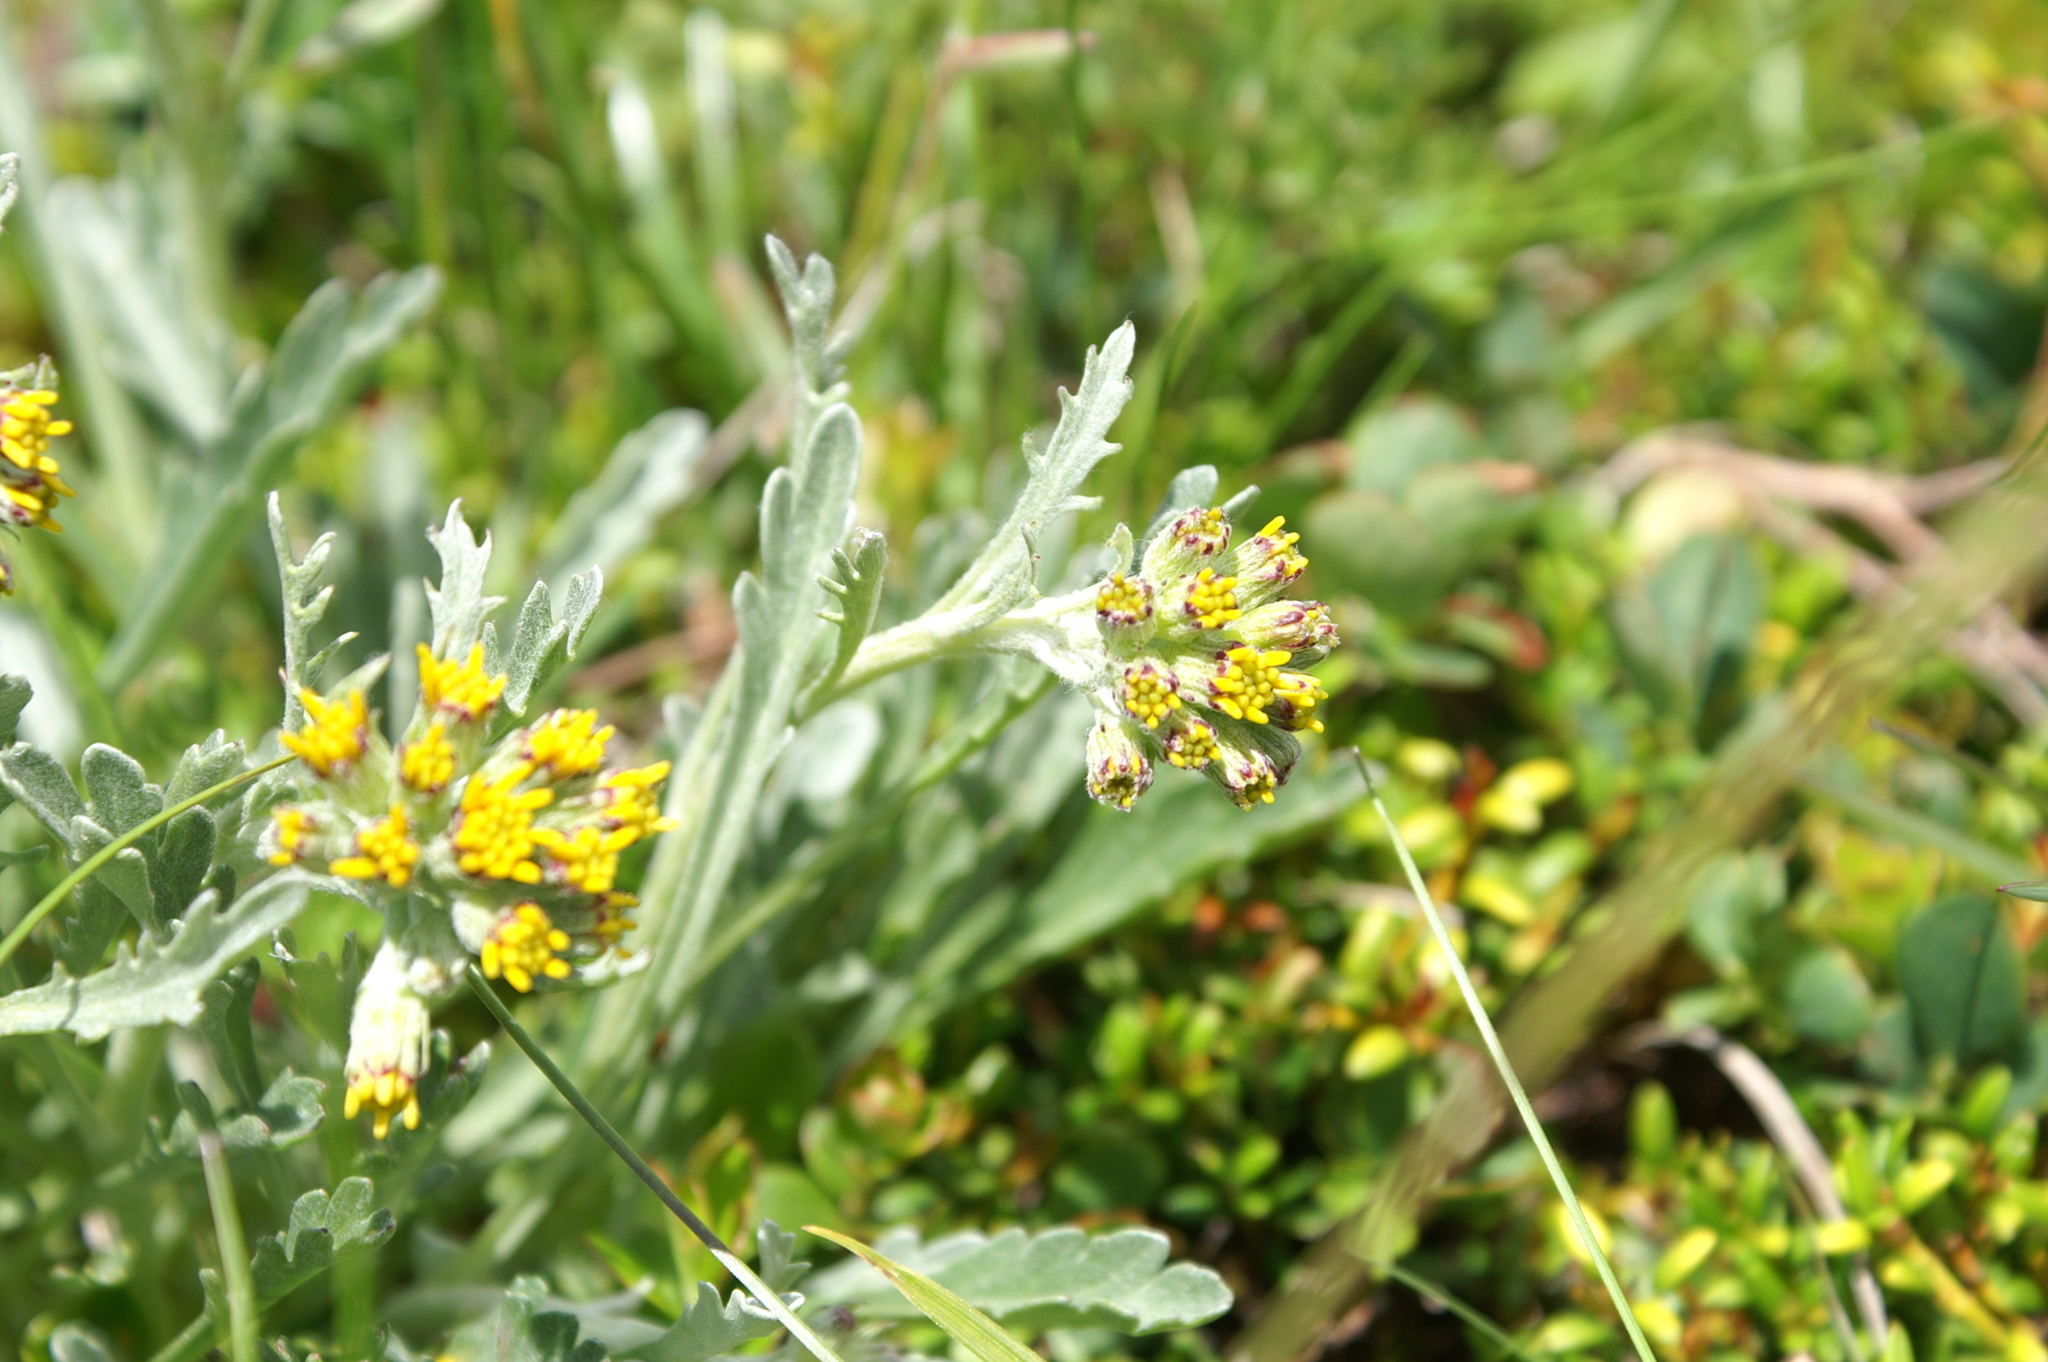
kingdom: Plantae
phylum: Tracheophyta
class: Magnoliopsida
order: Asterales
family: Asteraceae
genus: Jacobaea
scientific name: Jacobaea carniolica
